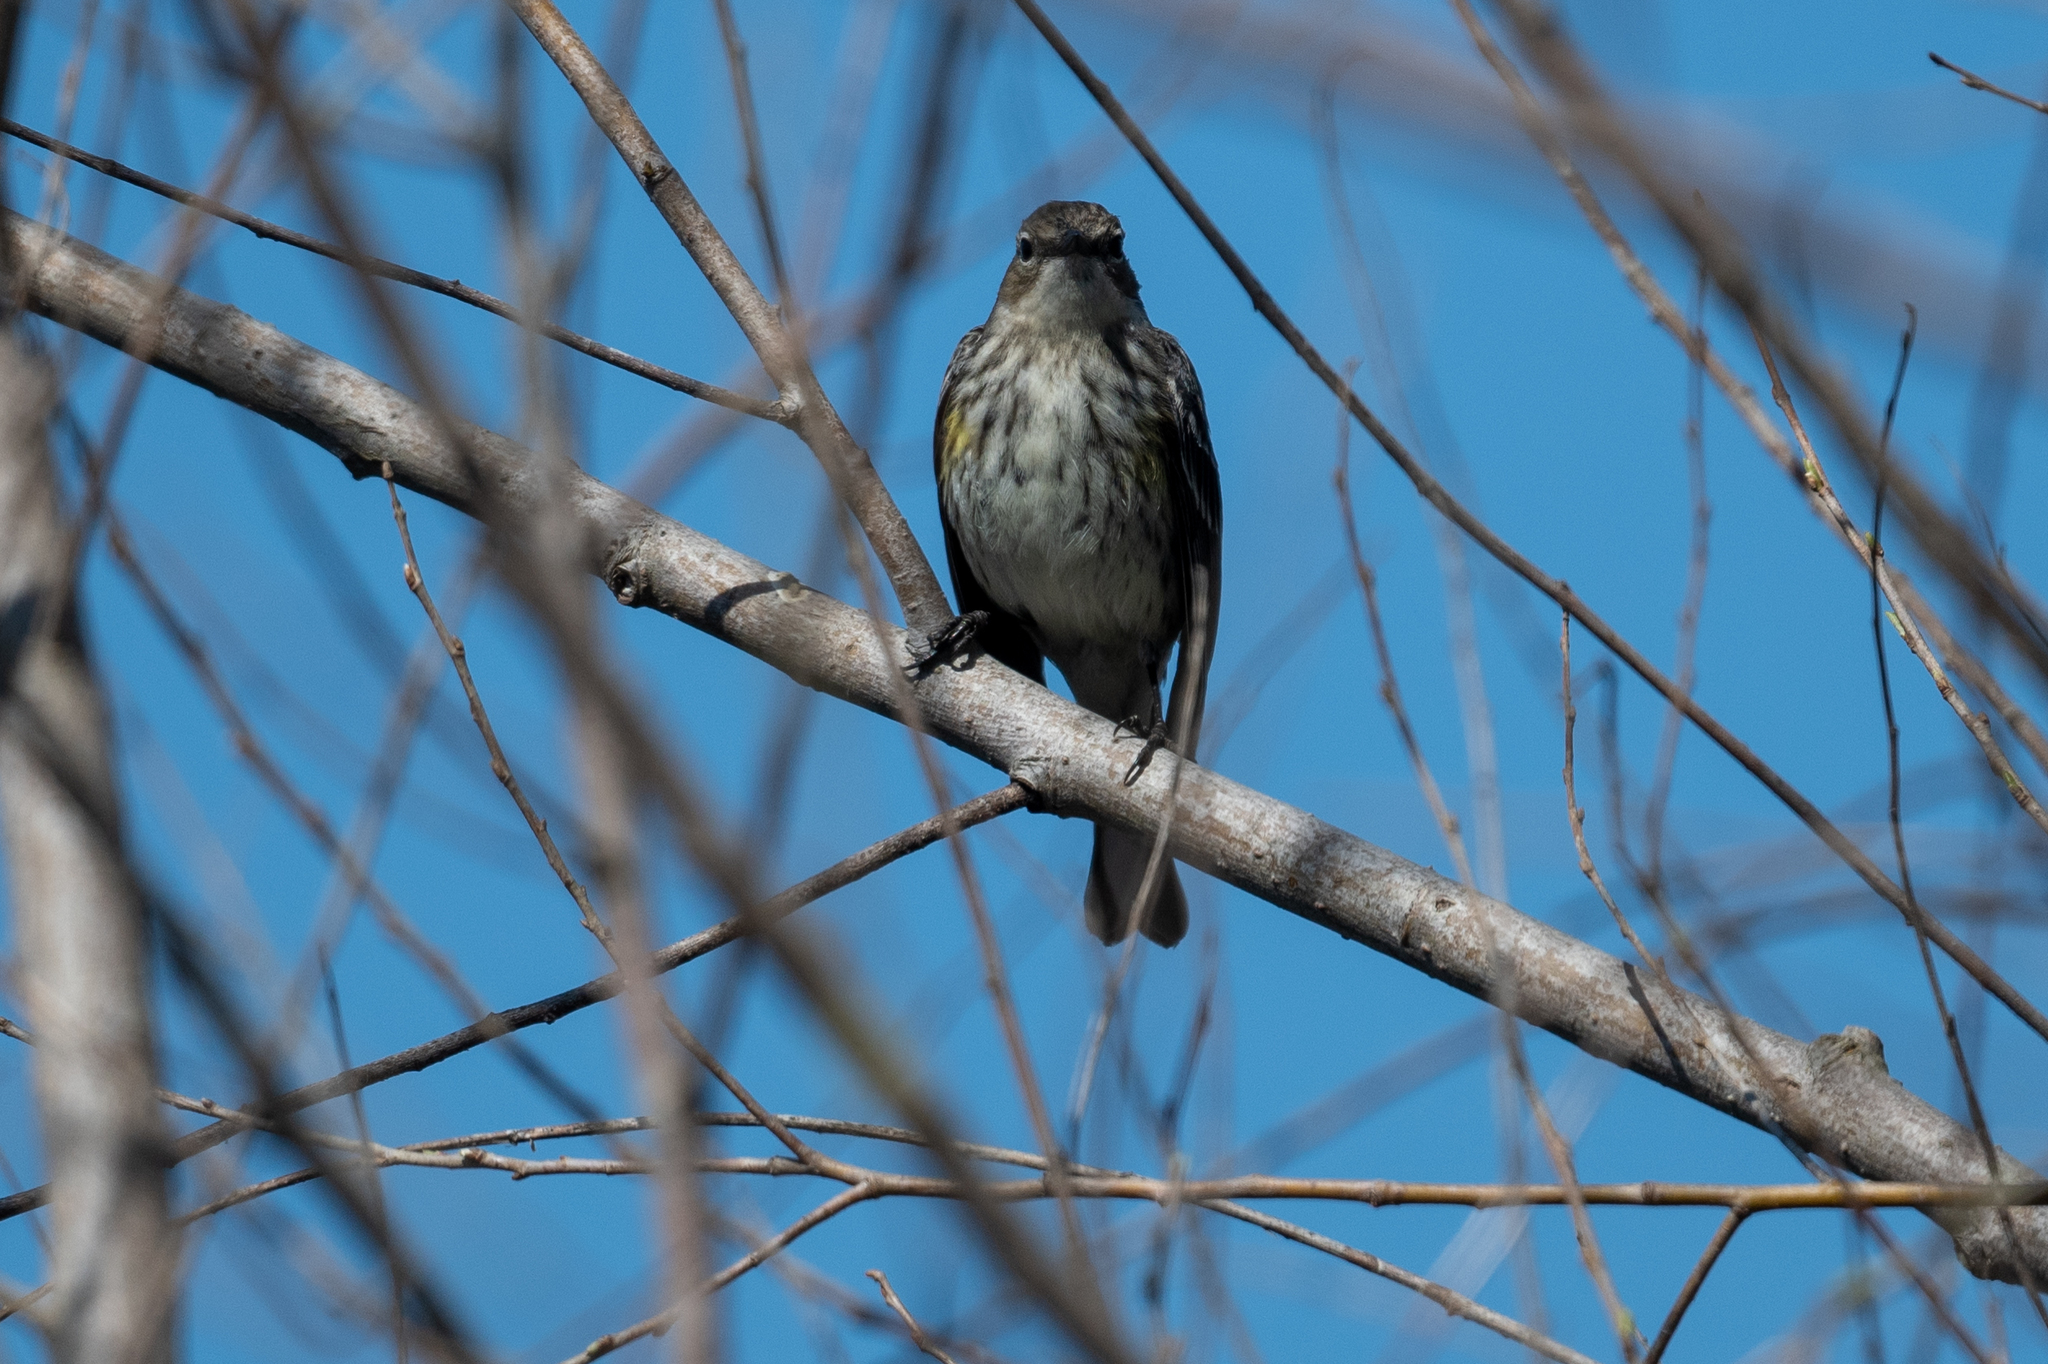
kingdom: Animalia
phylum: Chordata
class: Aves
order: Passeriformes
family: Parulidae
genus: Setophaga
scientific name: Setophaga coronata
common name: Myrtle warbler
